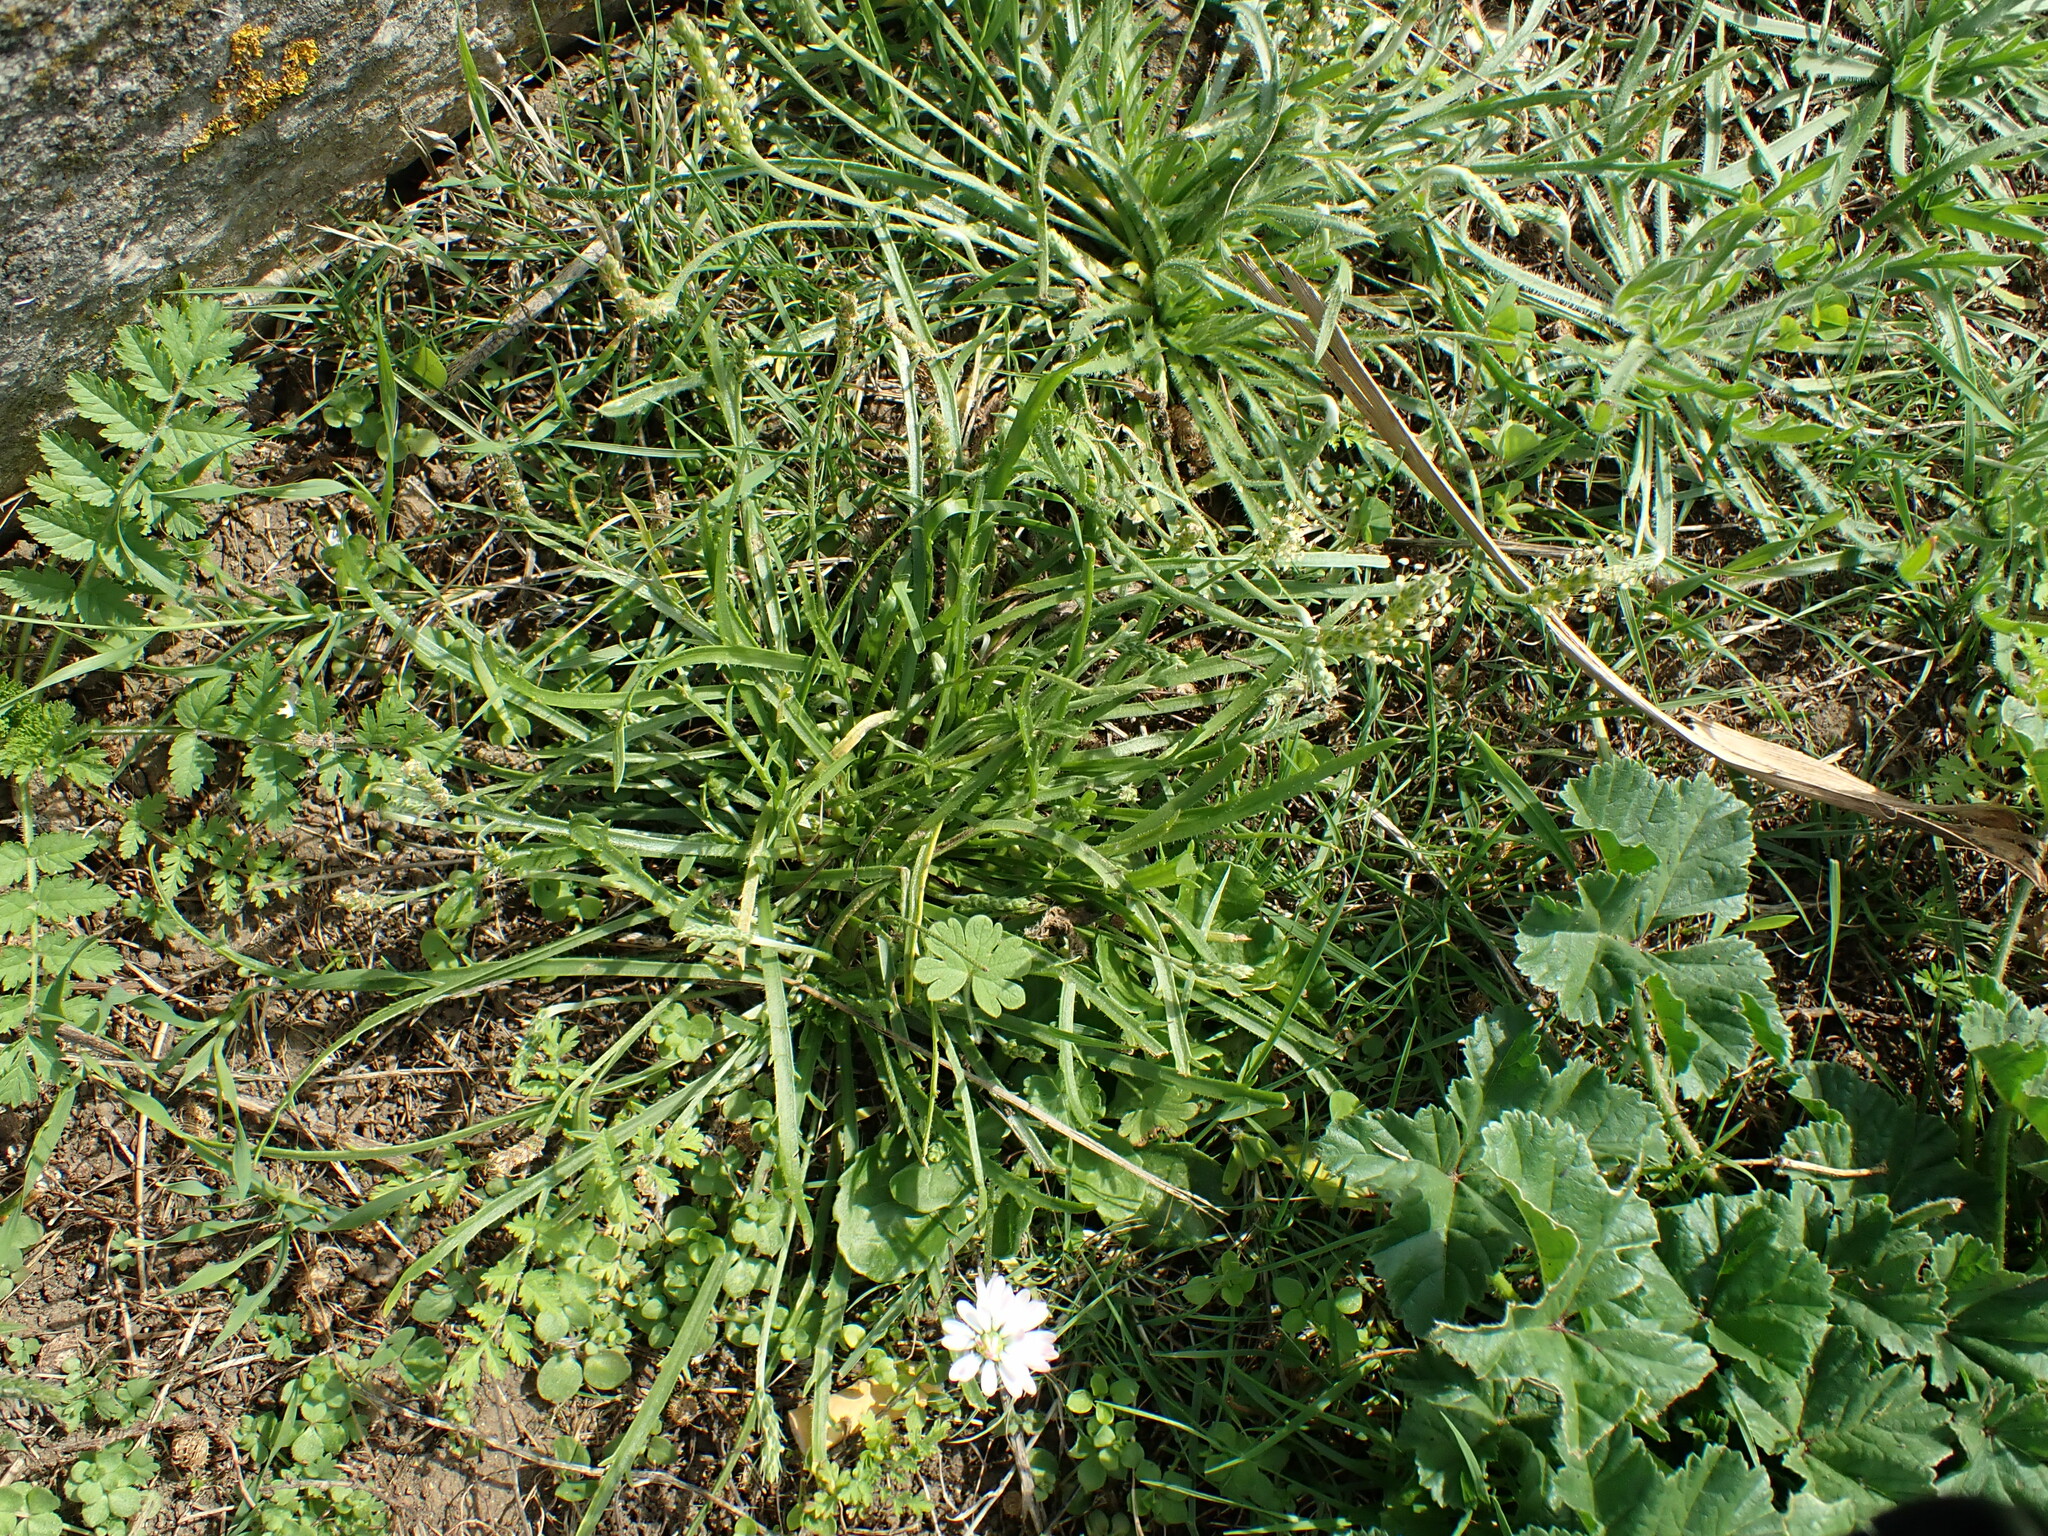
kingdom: Plantae
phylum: Tracheophyta
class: Magnoliopsida
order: Lamiales
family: Plantaginaceae
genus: Plantago
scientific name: Plantago coronopus
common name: Buck's-horn plantain
